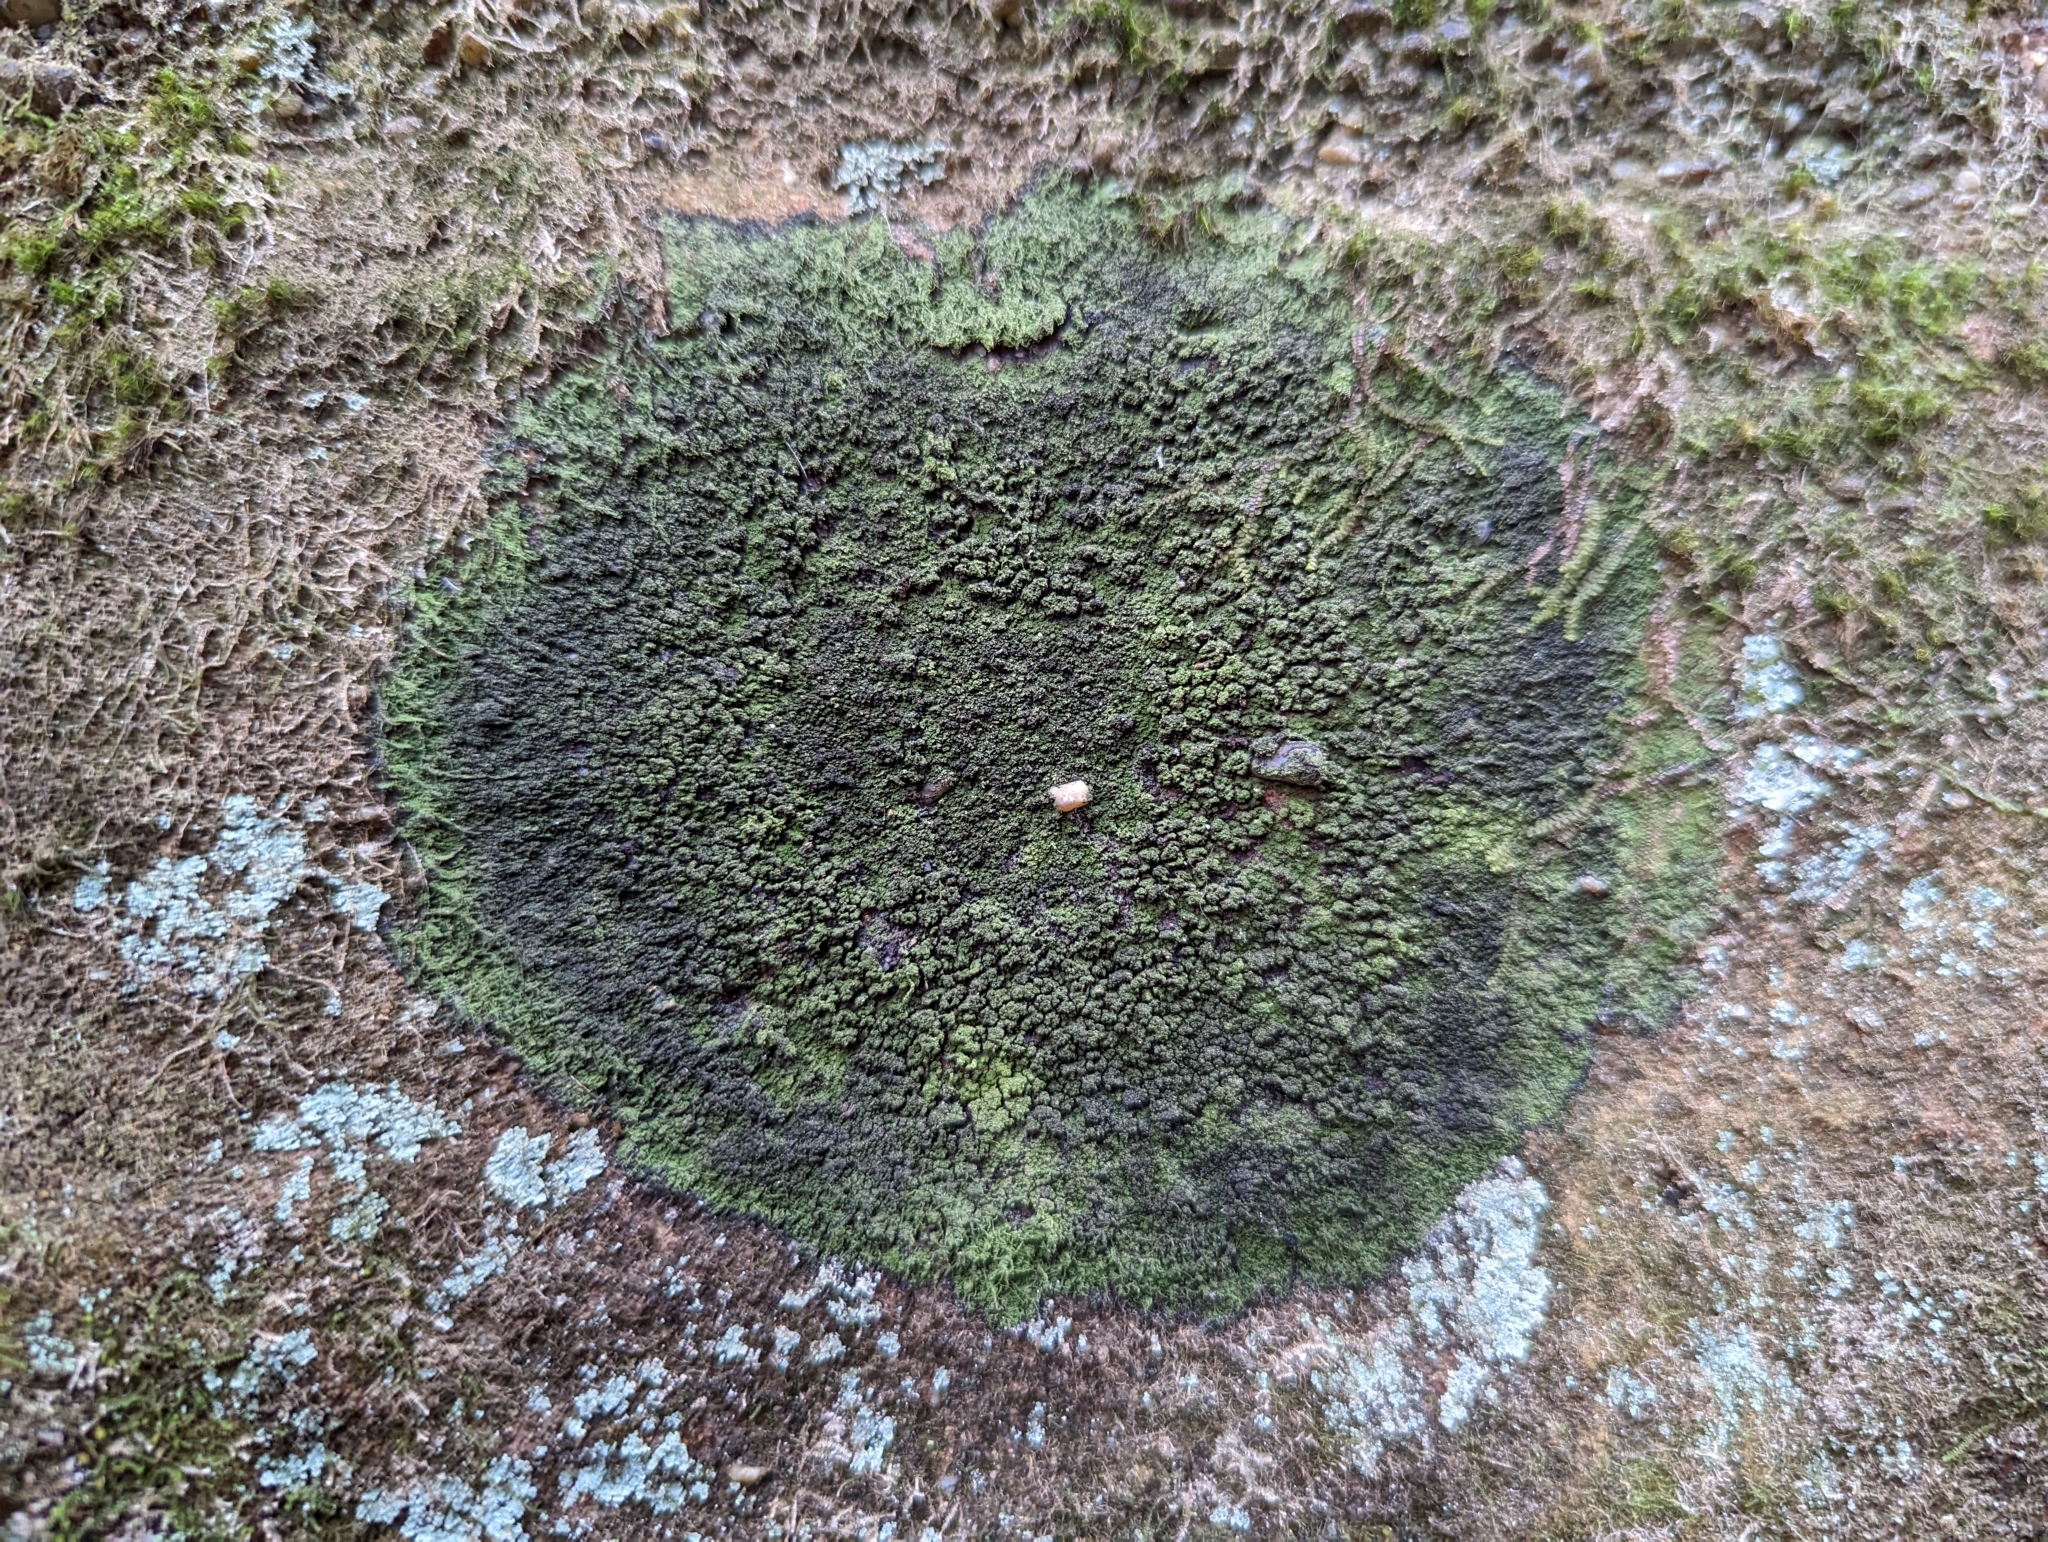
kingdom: Fungi
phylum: Ascomycota
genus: Micareopsis
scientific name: Micareopsis irriguata
